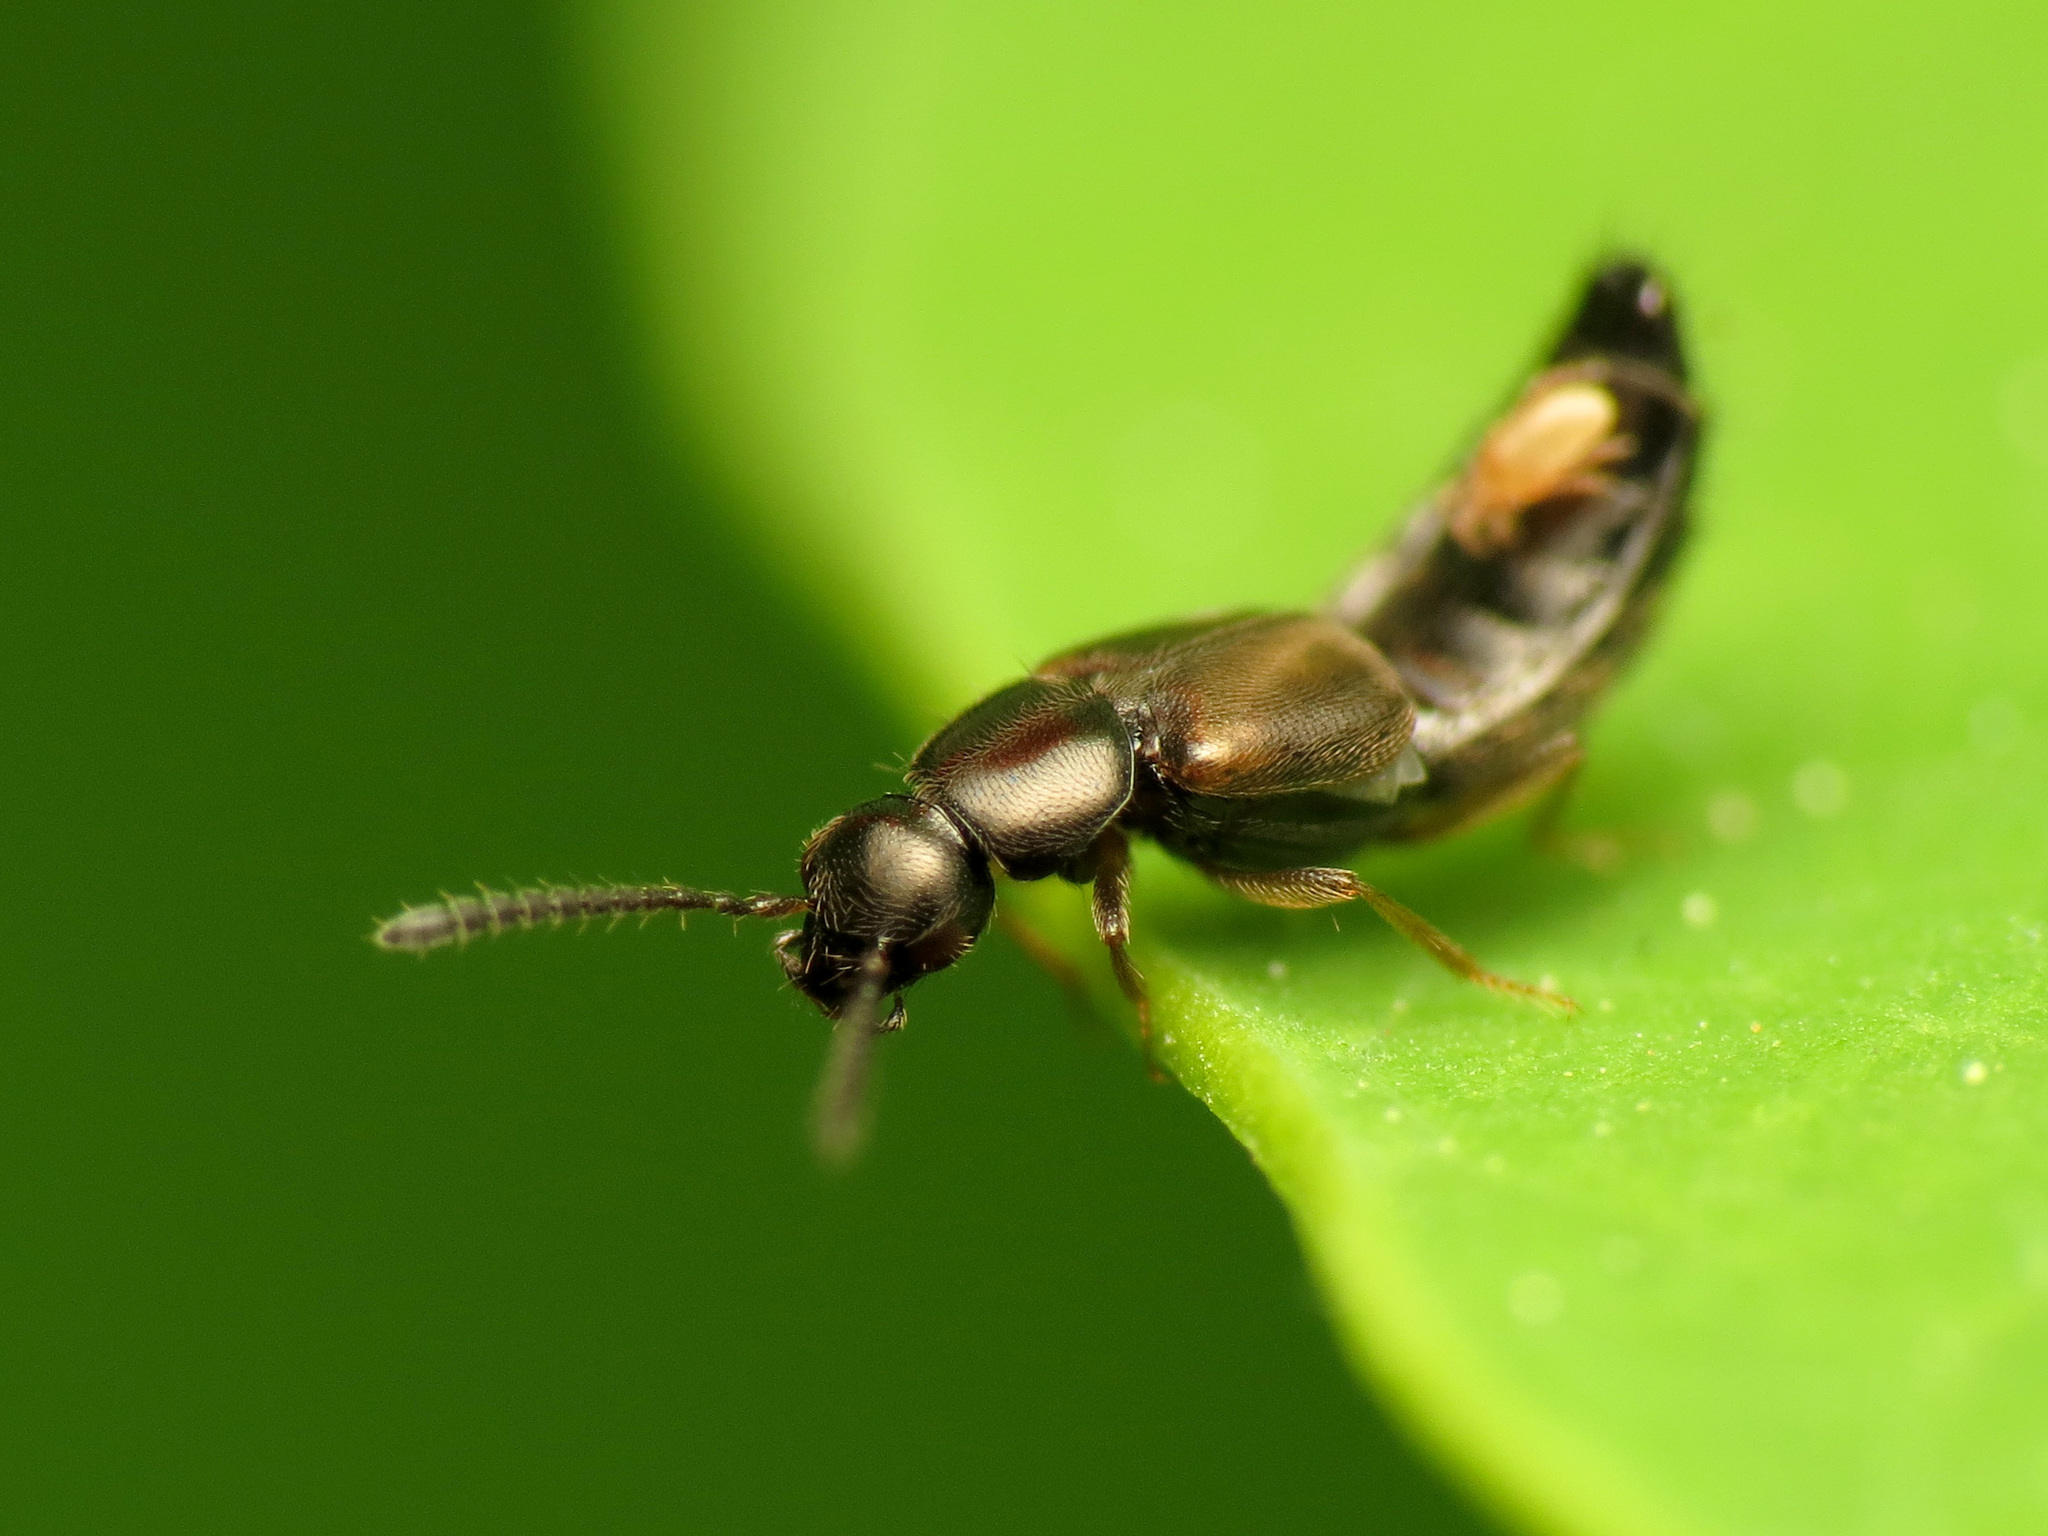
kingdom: Animalia
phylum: Arthropoda
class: Insecta
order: Coleoptera
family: Staphylinidae
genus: Atheta
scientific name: Atheta
